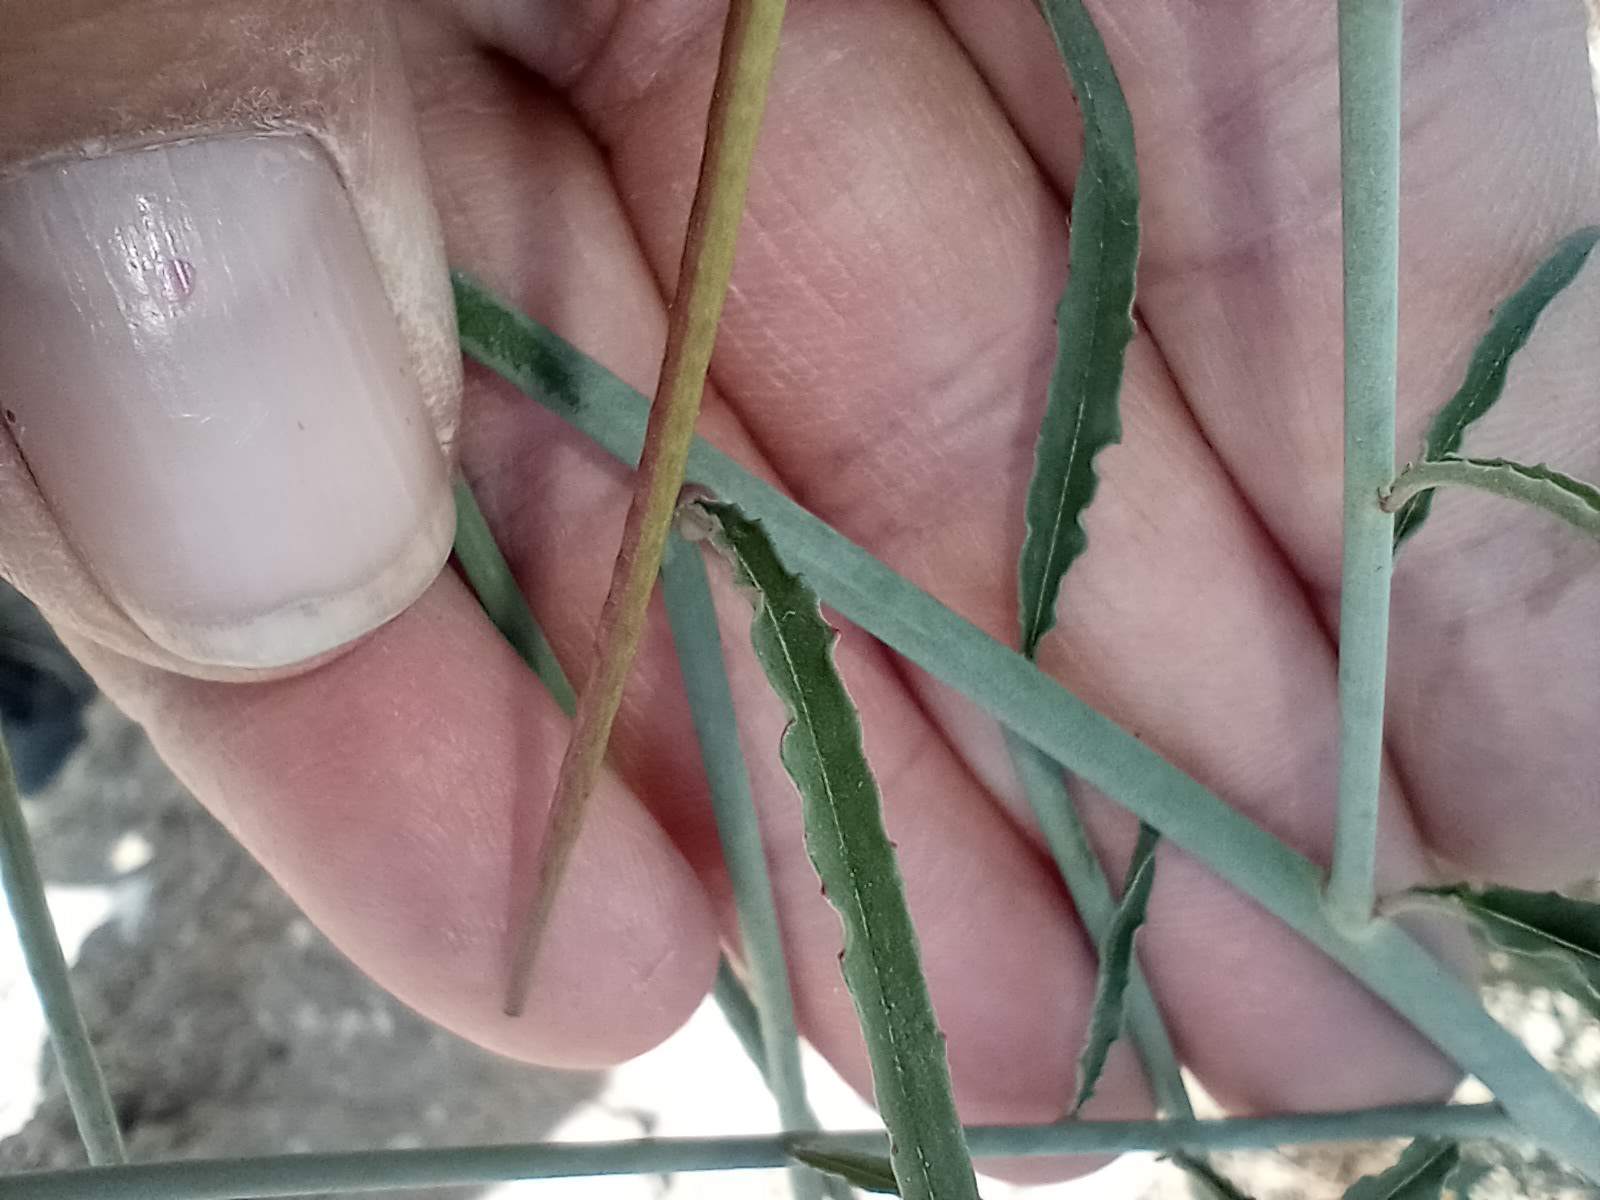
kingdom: Plantae
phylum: Tracheophyta
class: Magnoliopsida
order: Myrtales
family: Onagraceae
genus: Eulobus
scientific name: Eulobus californicus
